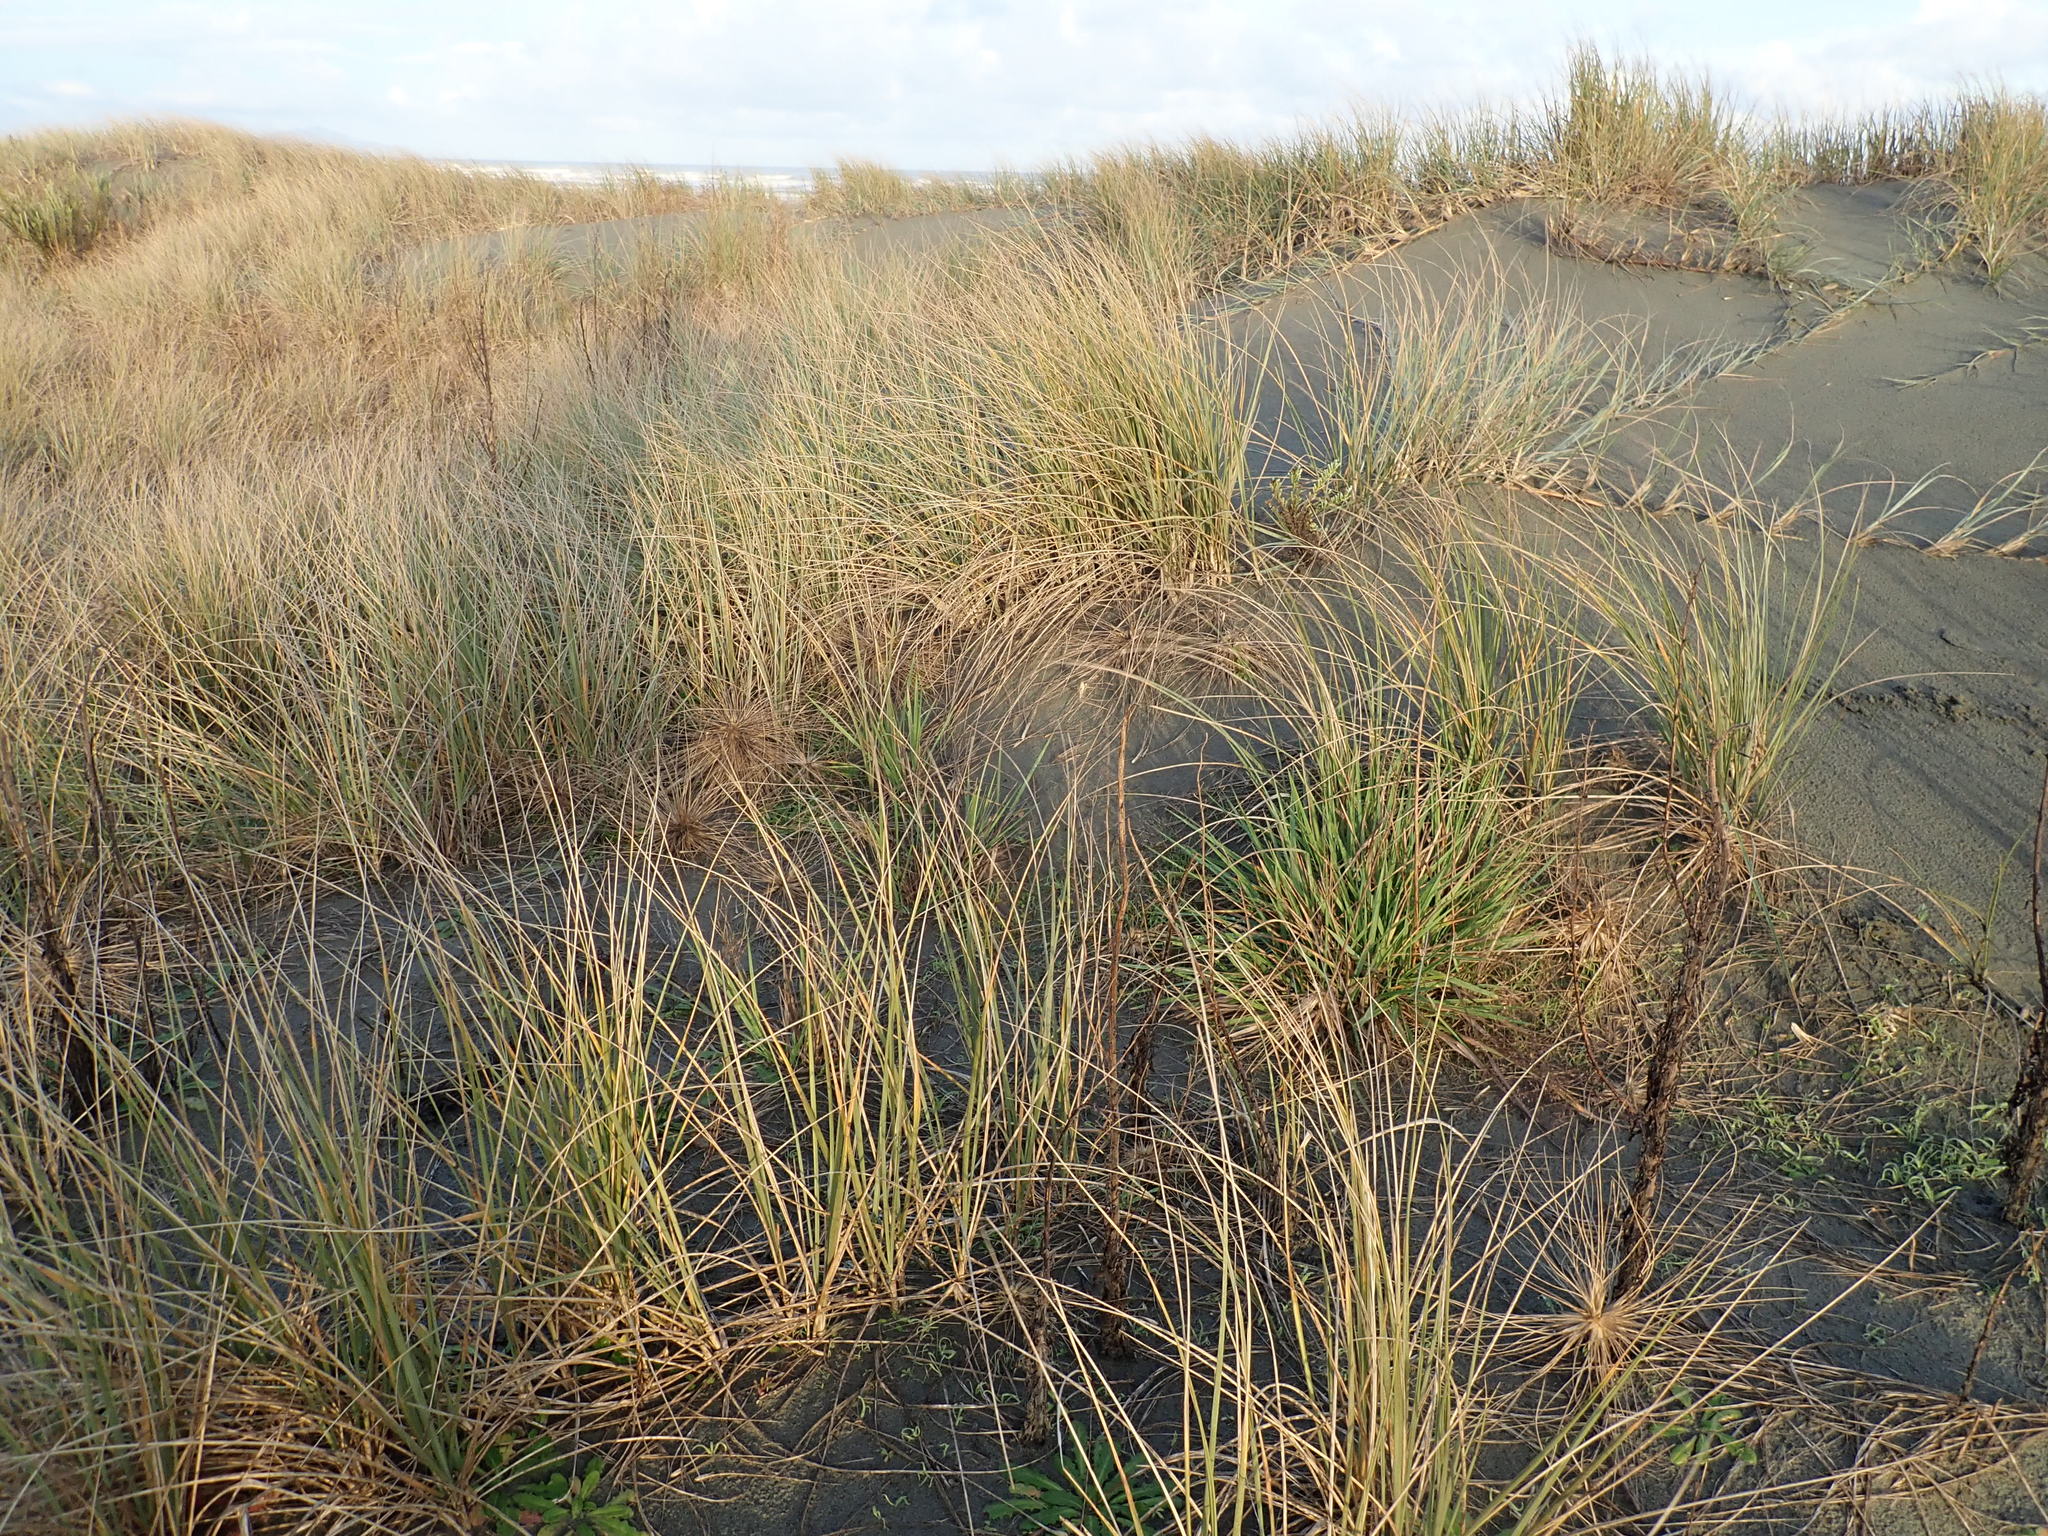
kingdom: Plantae
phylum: Tracheophyta
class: Liliopsida
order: Poales
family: Poaceae
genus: Lachnagrostis
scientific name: Lachnagrostis billardierei
